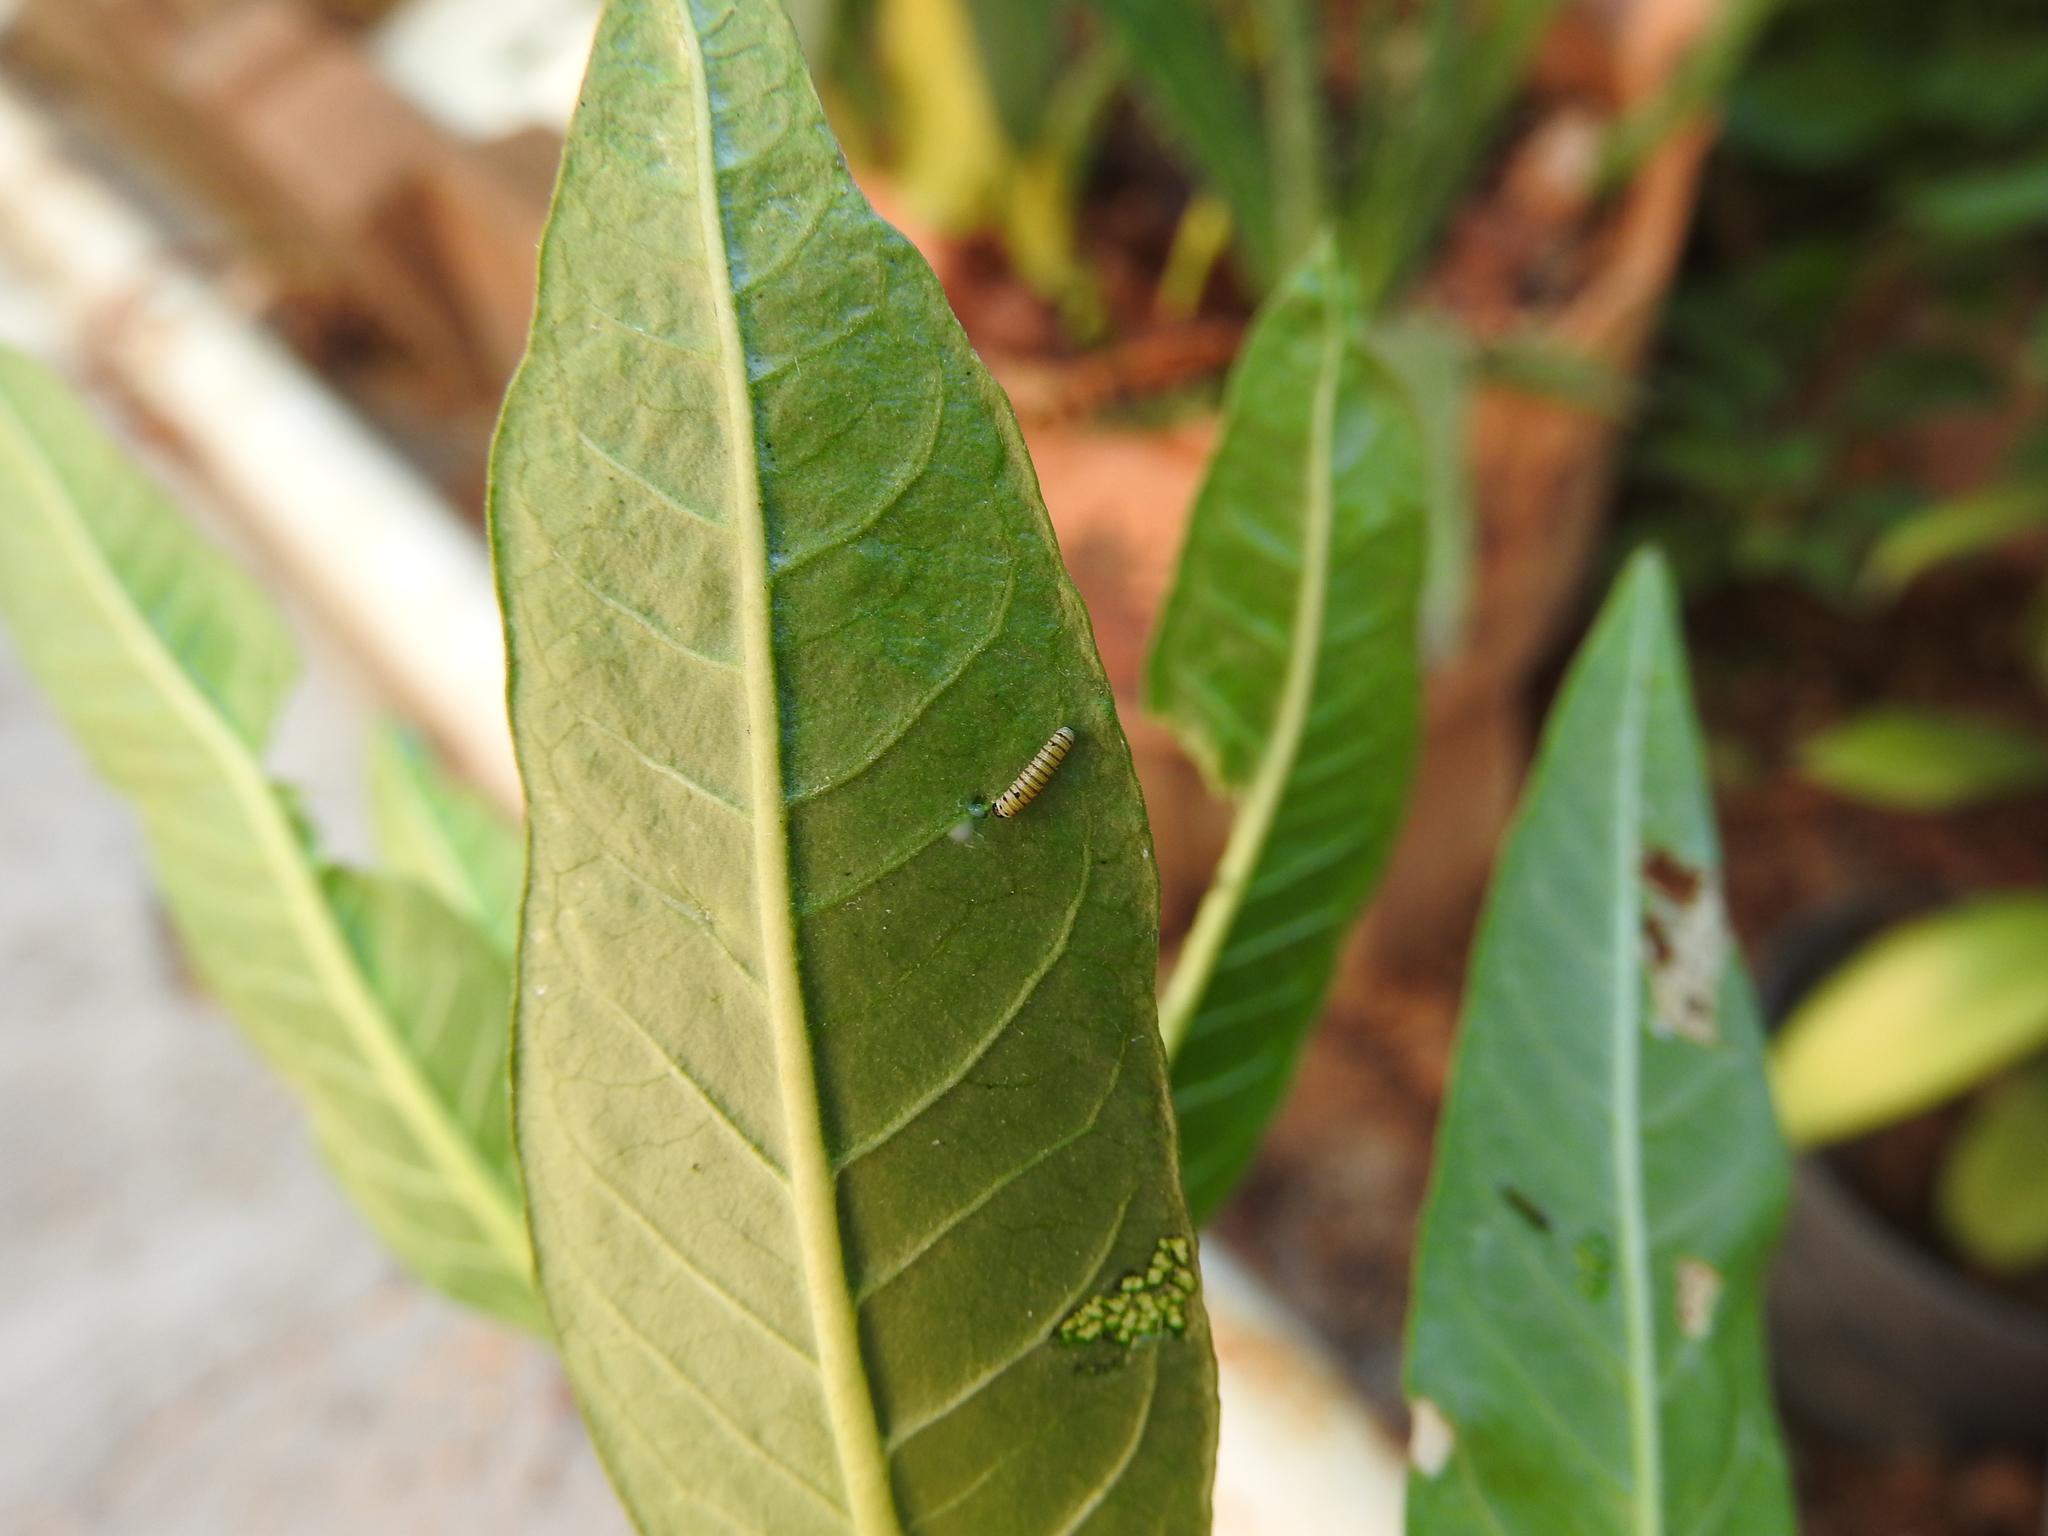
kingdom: Animalia
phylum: Arthropoda
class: Insecta
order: Lepidoptera
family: Nymphalidae
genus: Danaus
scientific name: Danaus plexippus
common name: Monarch
